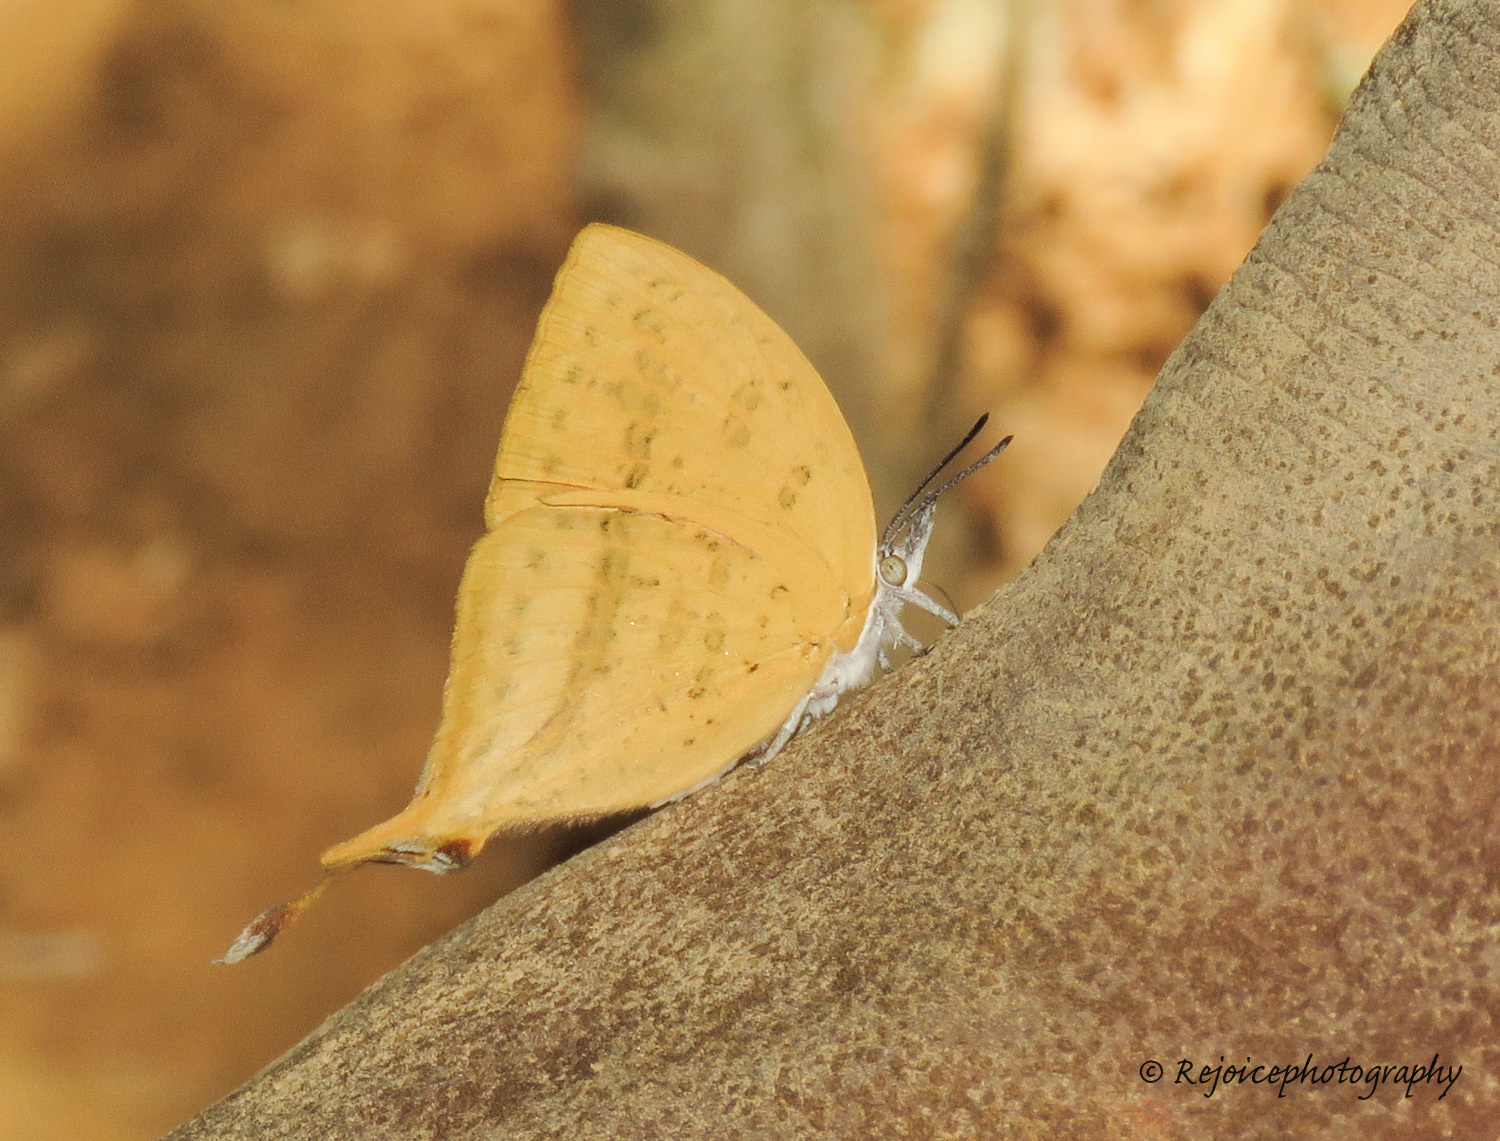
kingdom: Animalia
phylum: Arthropoda
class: Insecta
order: Lepidoptera
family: Lycaenidae
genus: Loxura
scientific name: Loxura atymnus
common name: Common yamfly
